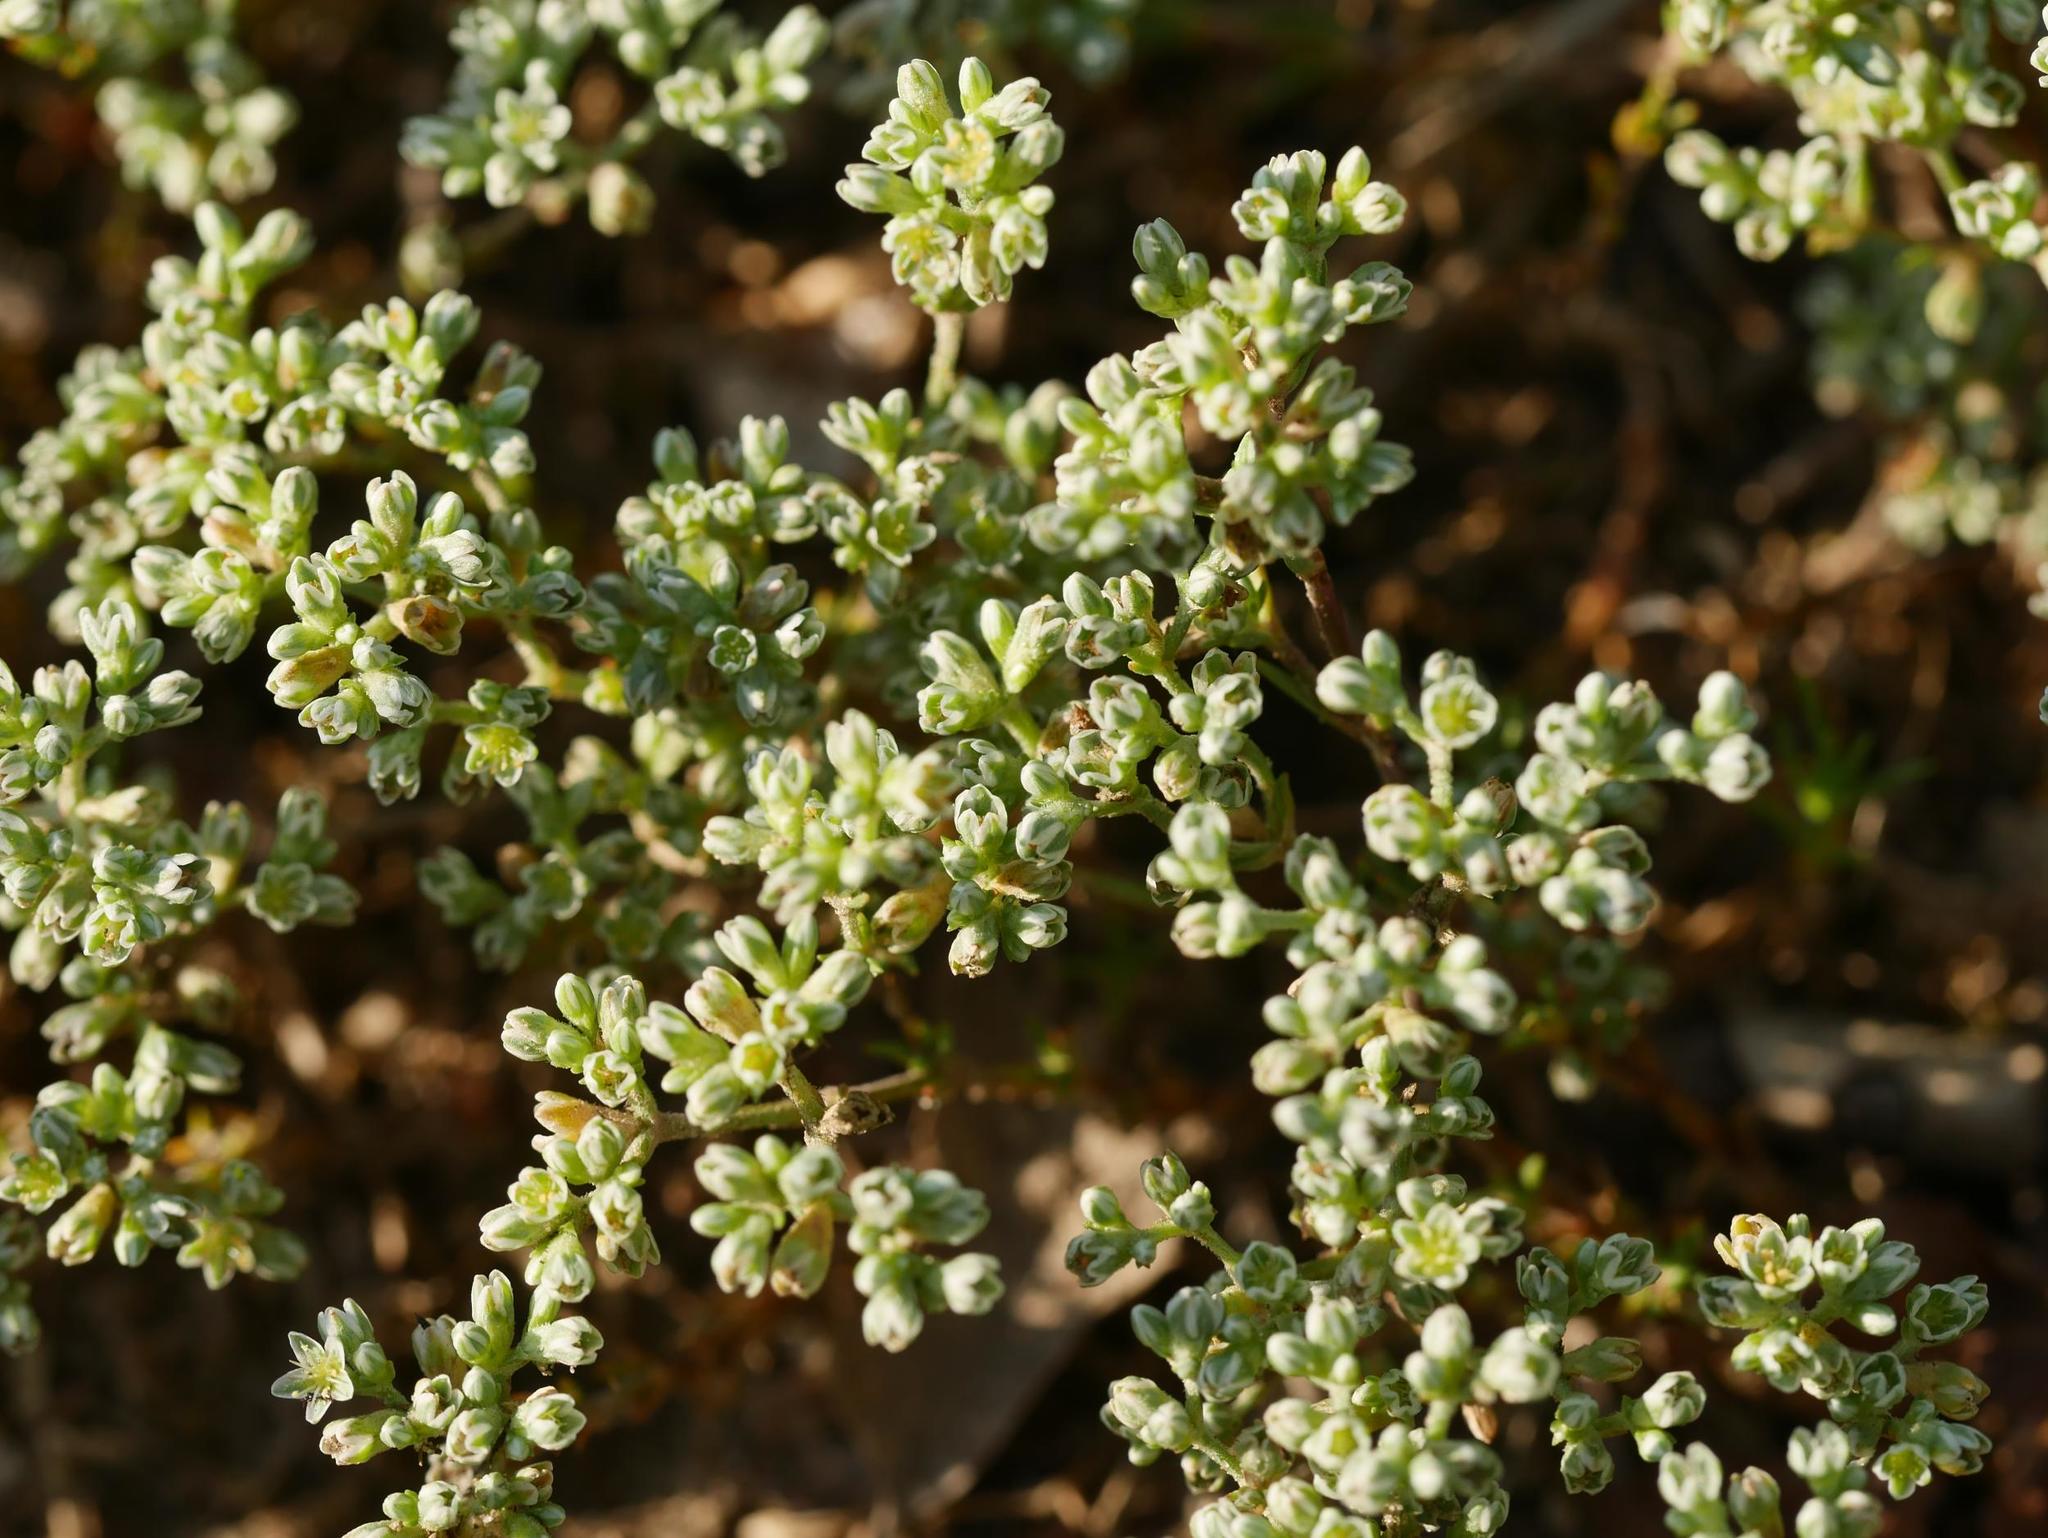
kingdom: Plantae
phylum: Tracheophyta
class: Magnoliopsida
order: Caryophyllales
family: Caryophyllaceae
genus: Scleranthus
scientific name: Scleranthus perennis
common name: Perennial knawel
